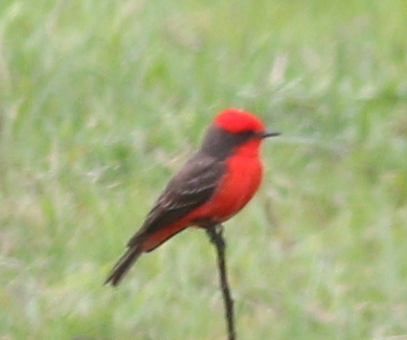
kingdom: Animalia
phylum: Chordata
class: Aves
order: Passeriformes
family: Tyrannidae
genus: Pyrocephalus
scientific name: Pyrocephalus rubinus
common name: Vermilion flycatcher
